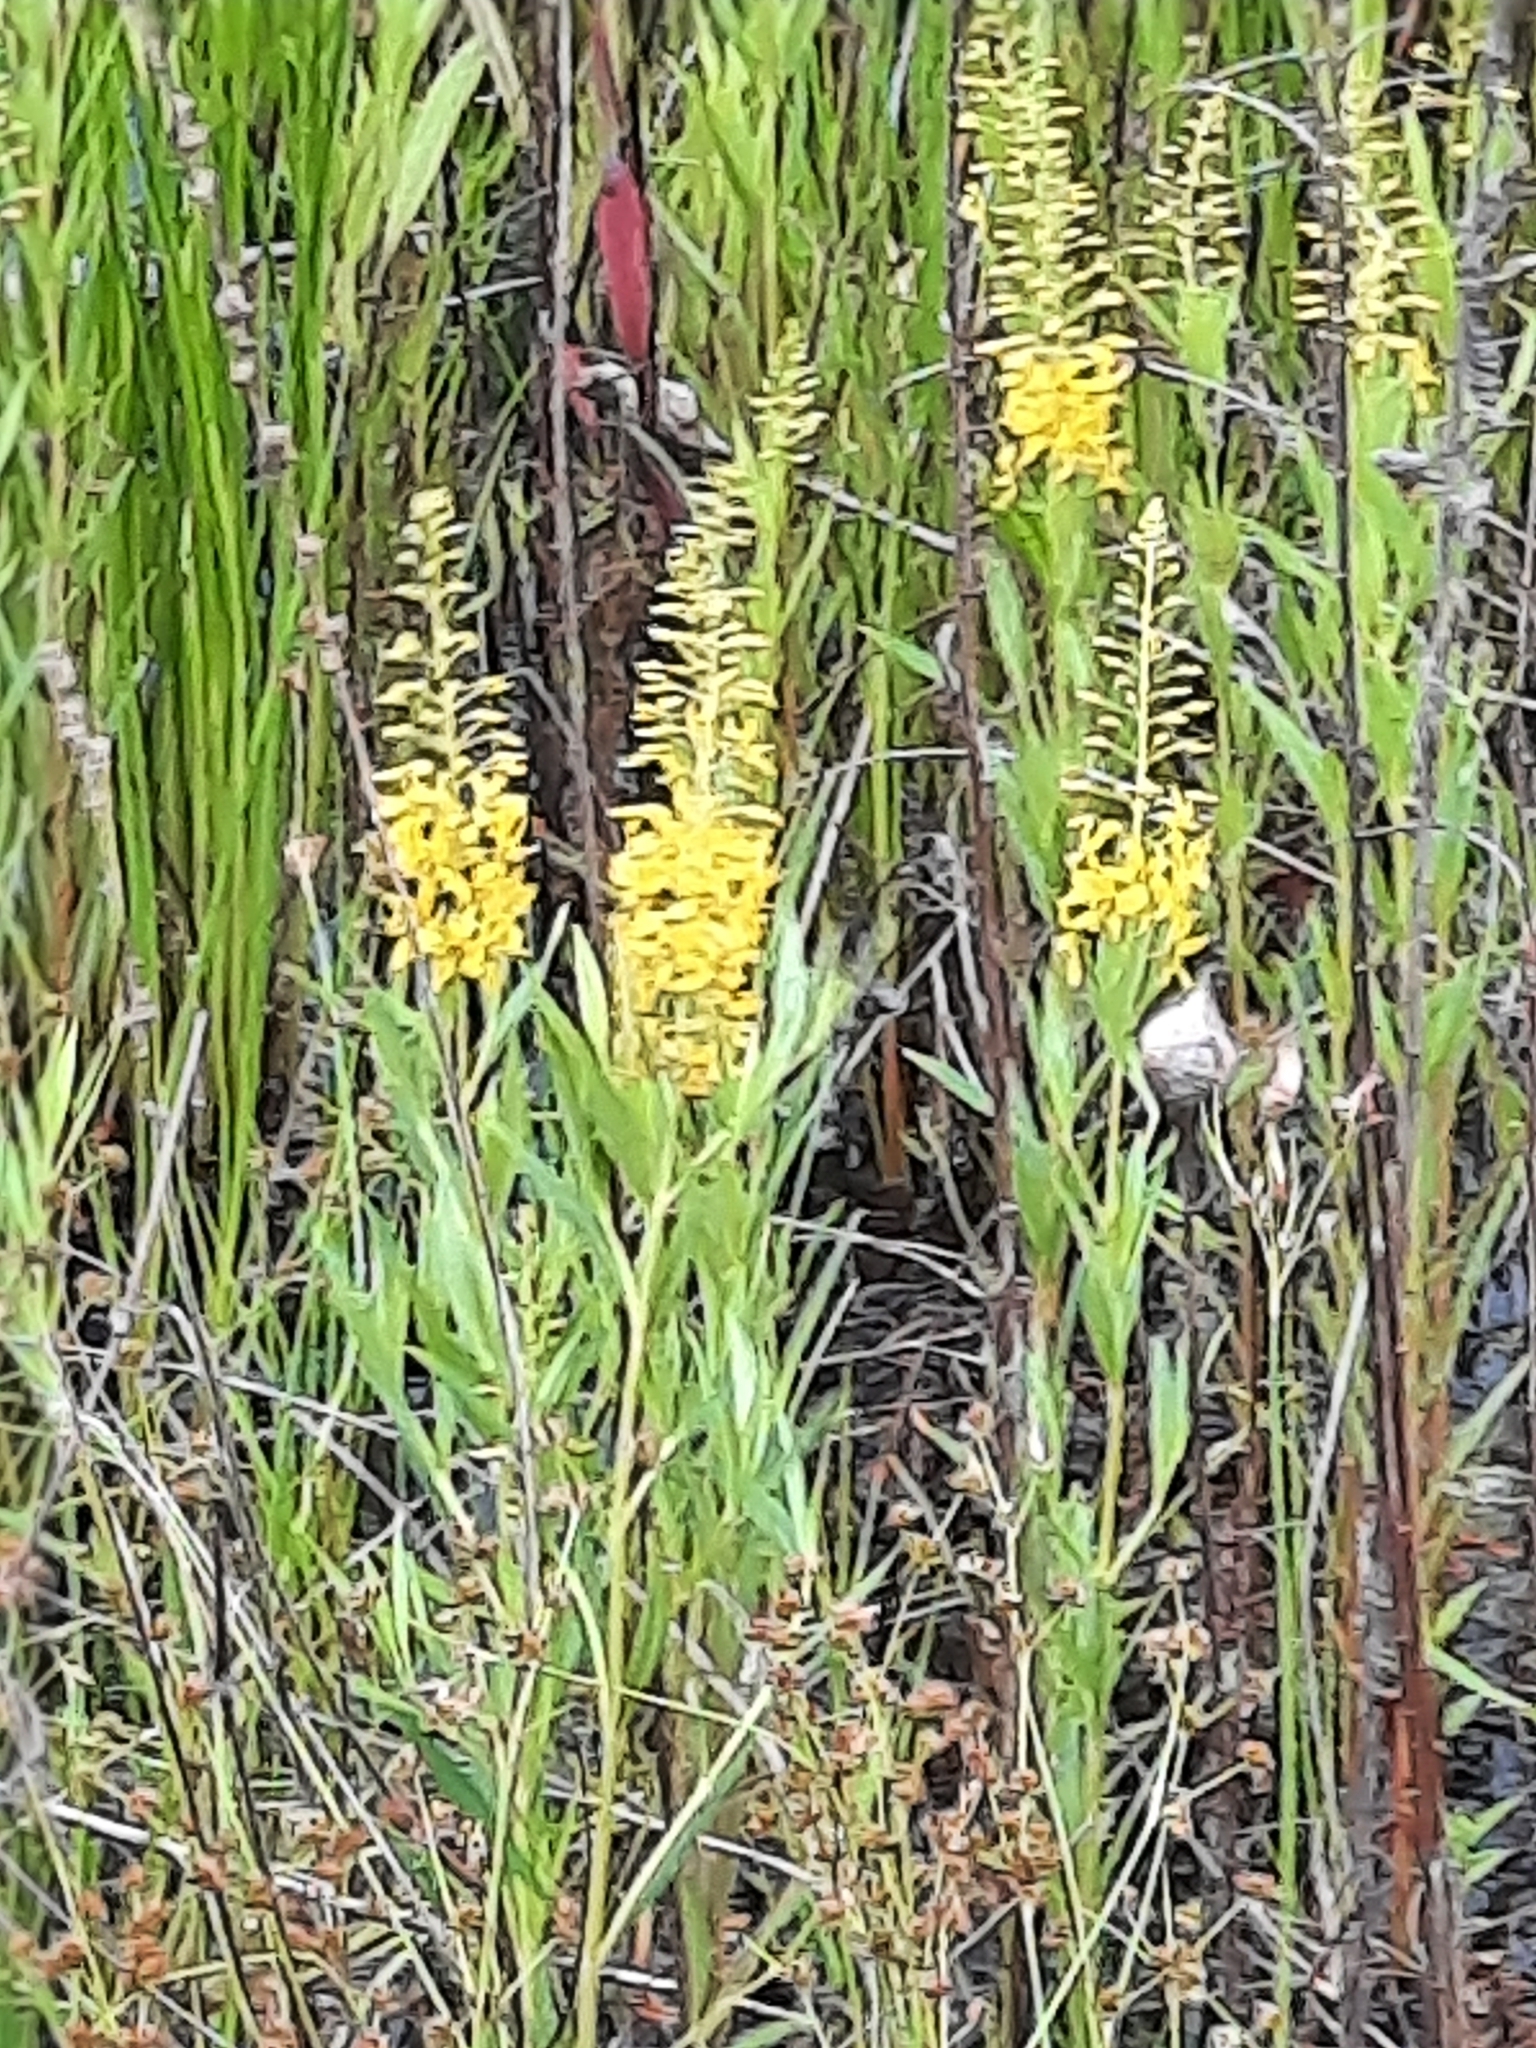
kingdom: Plantae
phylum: Tracheophyta
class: Magnoliopsida
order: Ericales
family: Primulaceae
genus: Lysimachia
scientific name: Lysimachia terrestris
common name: Lake loosestrife
